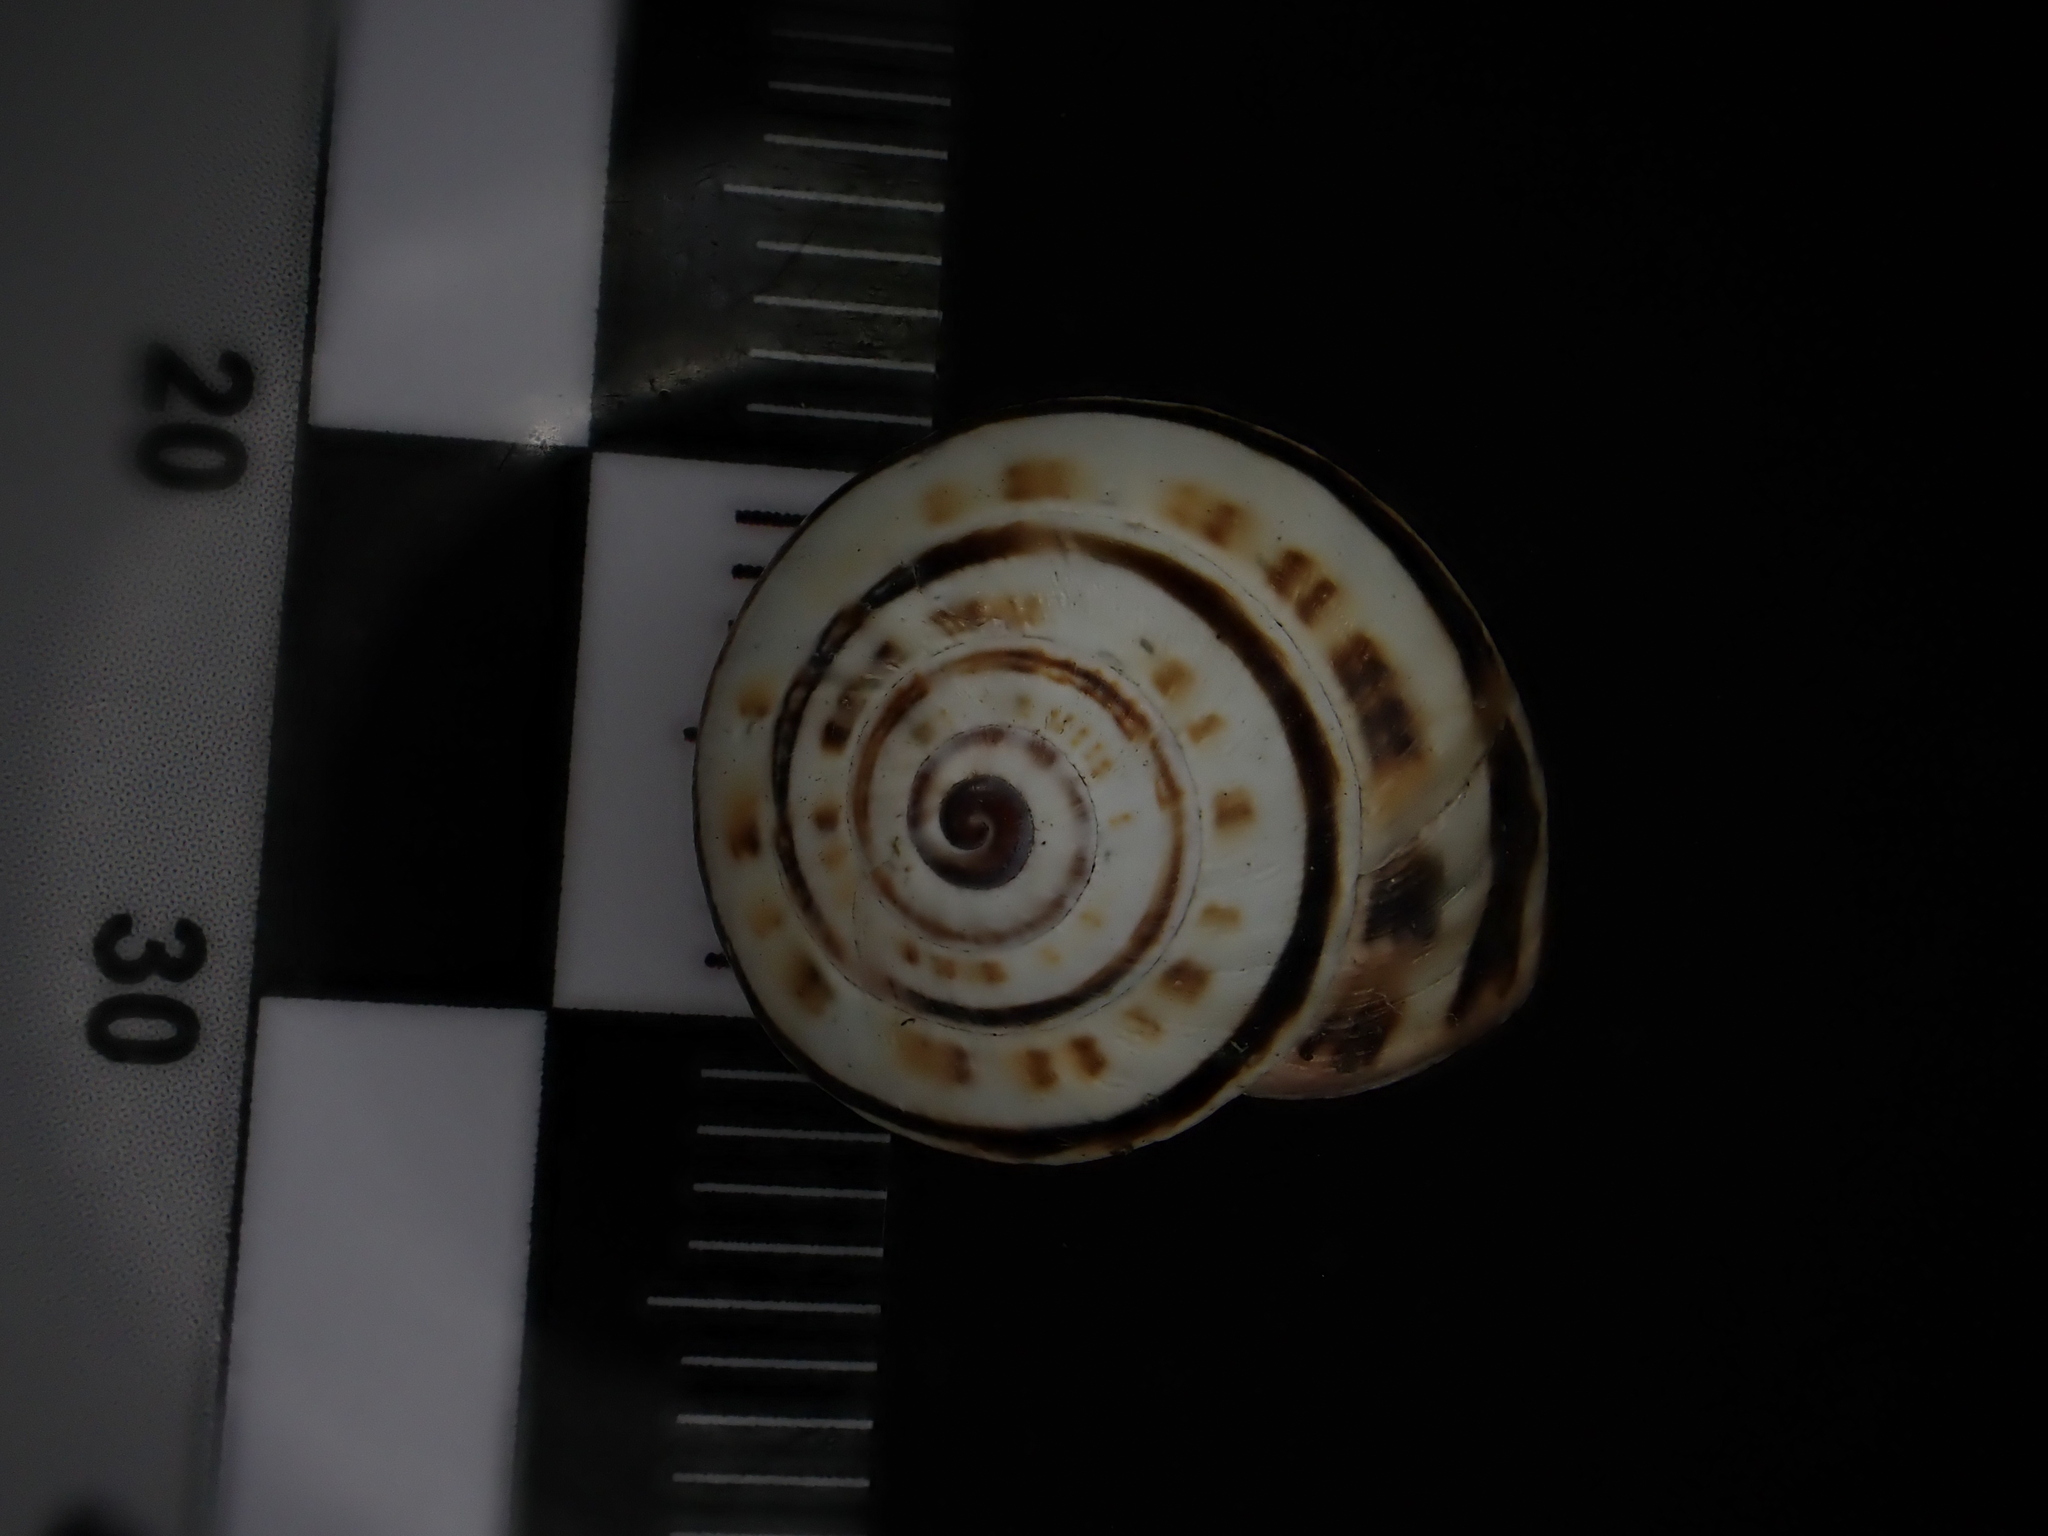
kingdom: Animalia
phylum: Mollusca
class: Gastropoda
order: Stylommatophora
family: Helicidae
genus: Theba
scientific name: Theba pisana
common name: White snail
